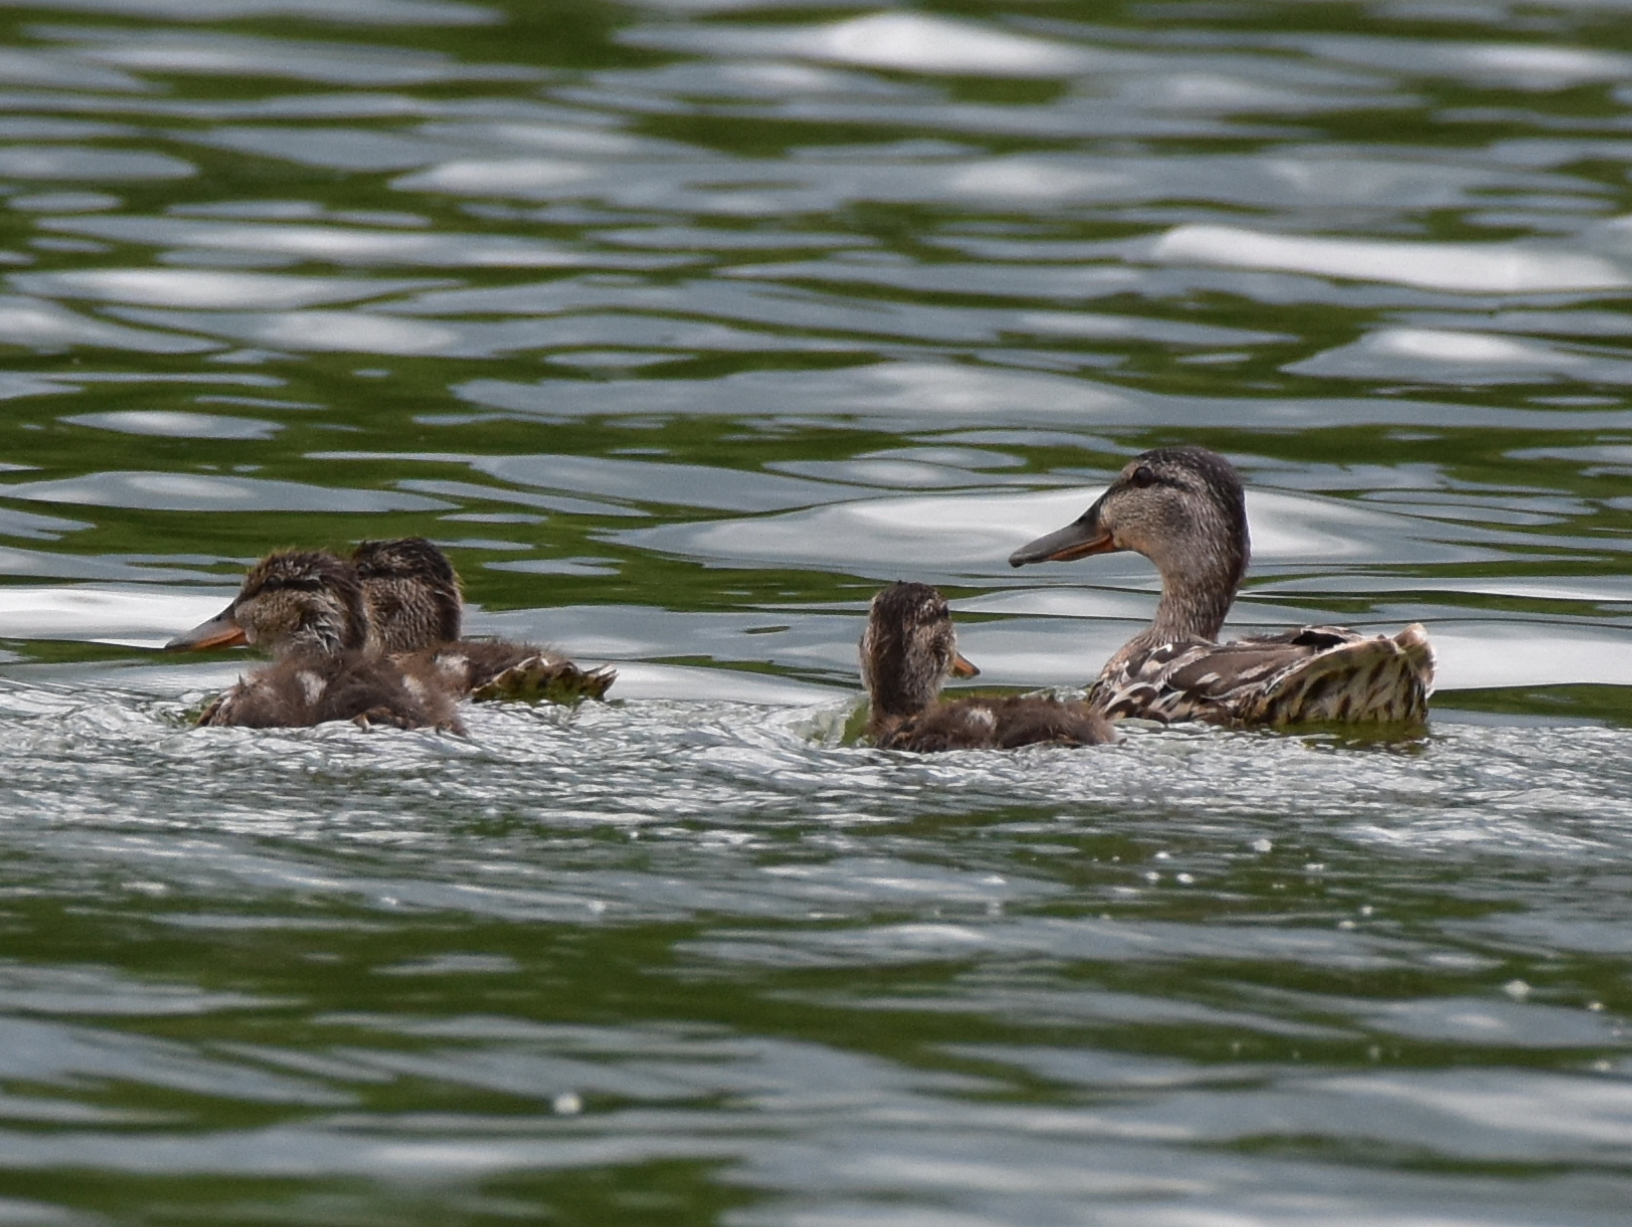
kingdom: Animalia
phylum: Chordata
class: Aves
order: Anseriformes
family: Anatidae
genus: Anas
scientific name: Anas platyrhynchos
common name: Mallard
